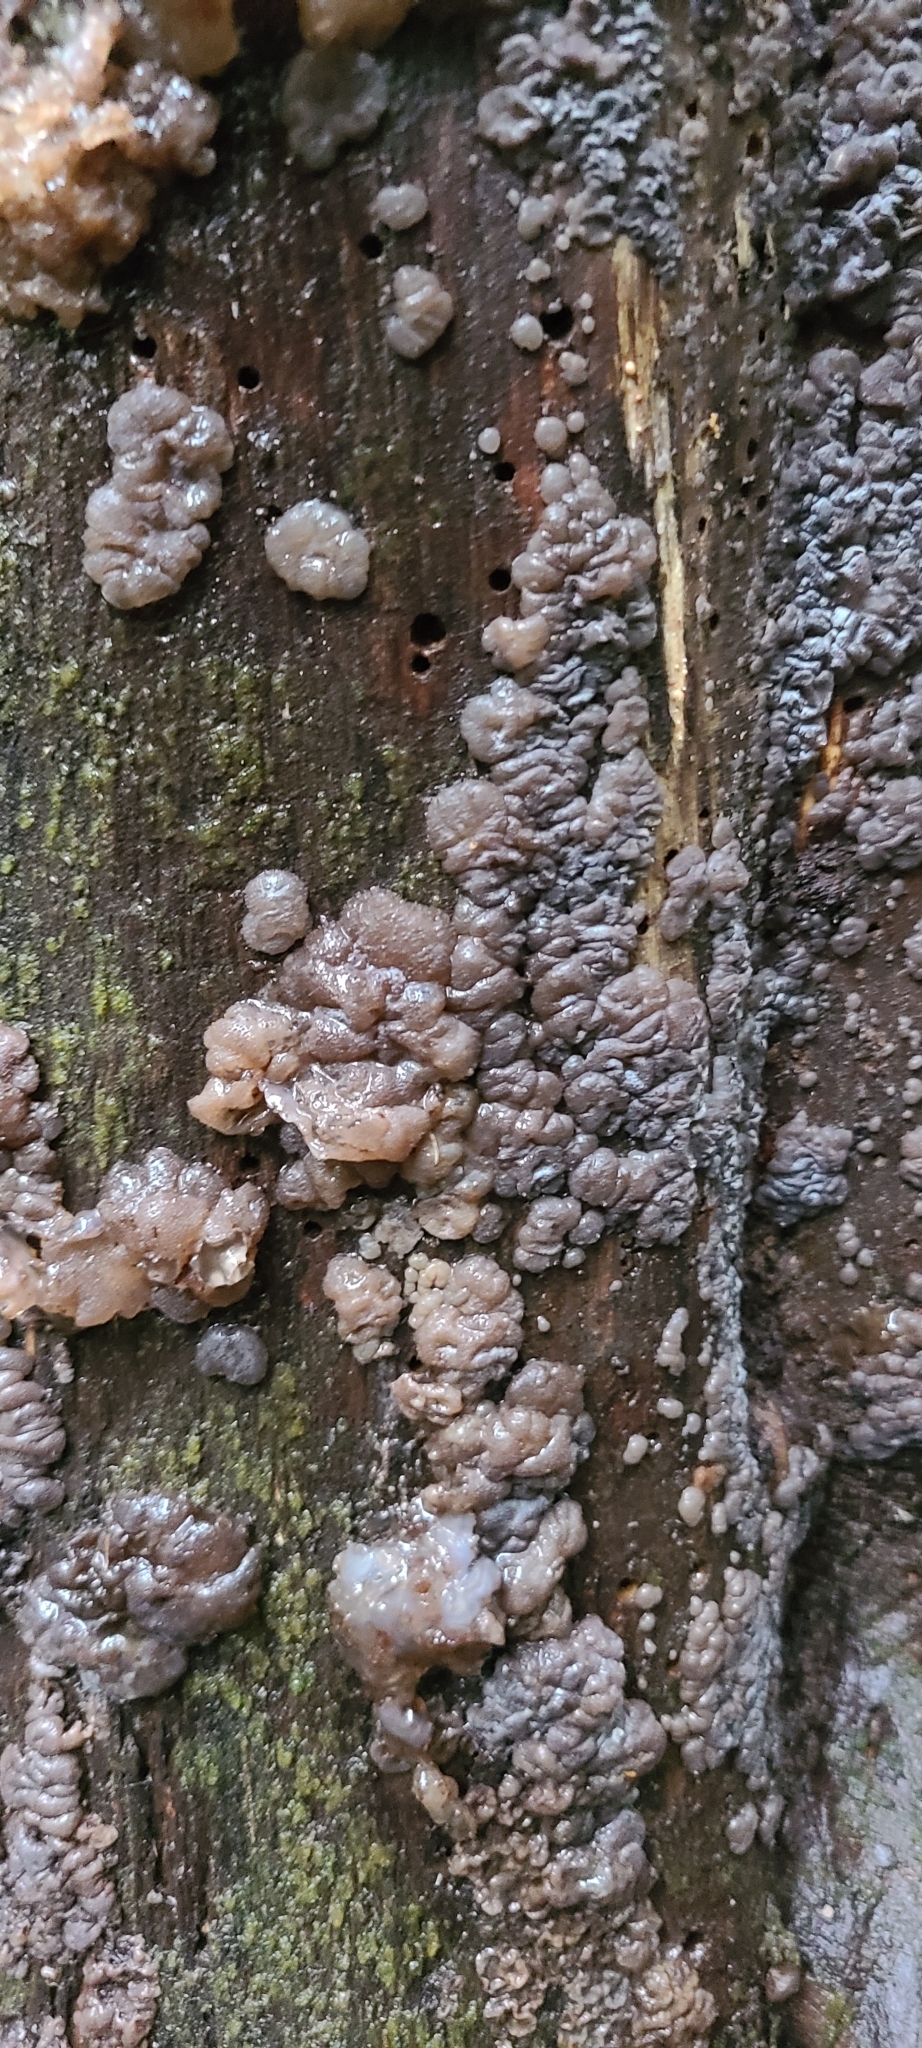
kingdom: Fungi
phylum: Basidiomycota
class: Agaricomycetes
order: Auriculariales
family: Auriculariaceae
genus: Tremellochaete
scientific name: Tremellochaete
